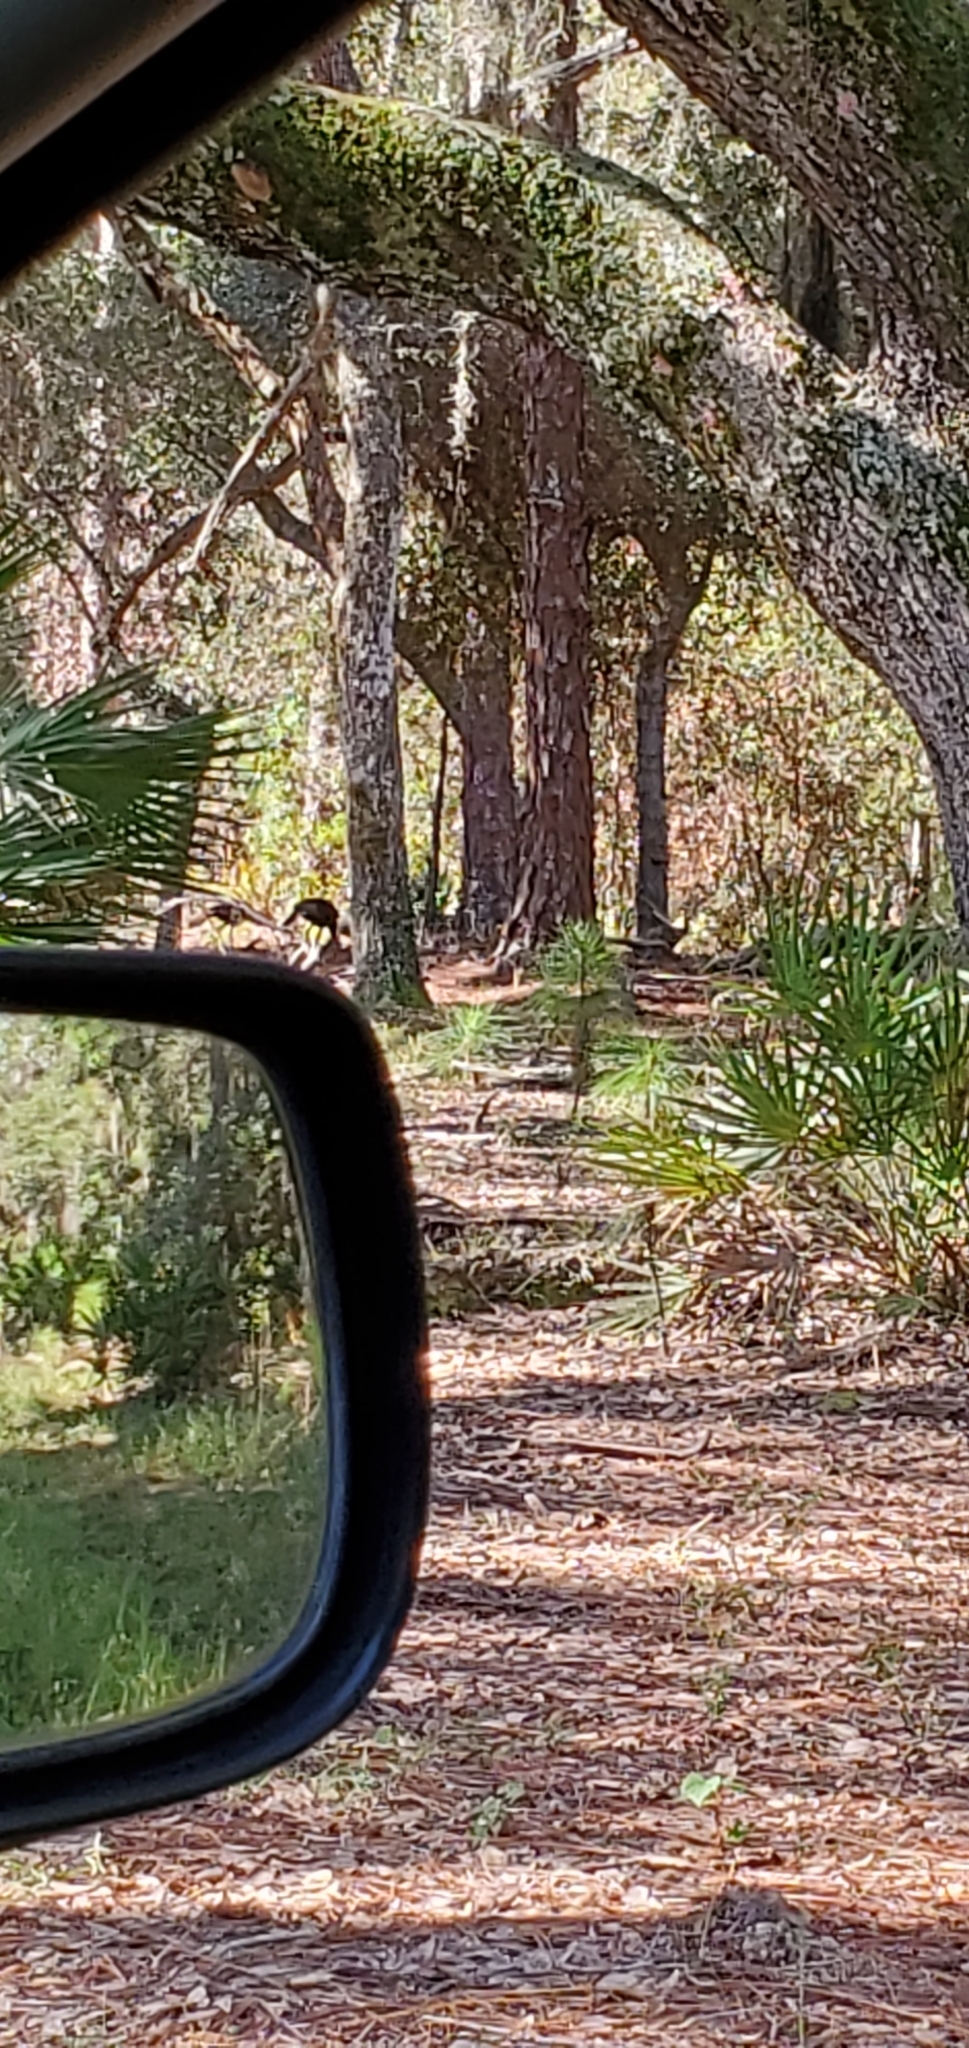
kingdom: Animalia
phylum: Chordata
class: Aves
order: Galliformes
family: Phasianidae
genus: Meleagris
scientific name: Meleagris gallopavo
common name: Wild turkey
